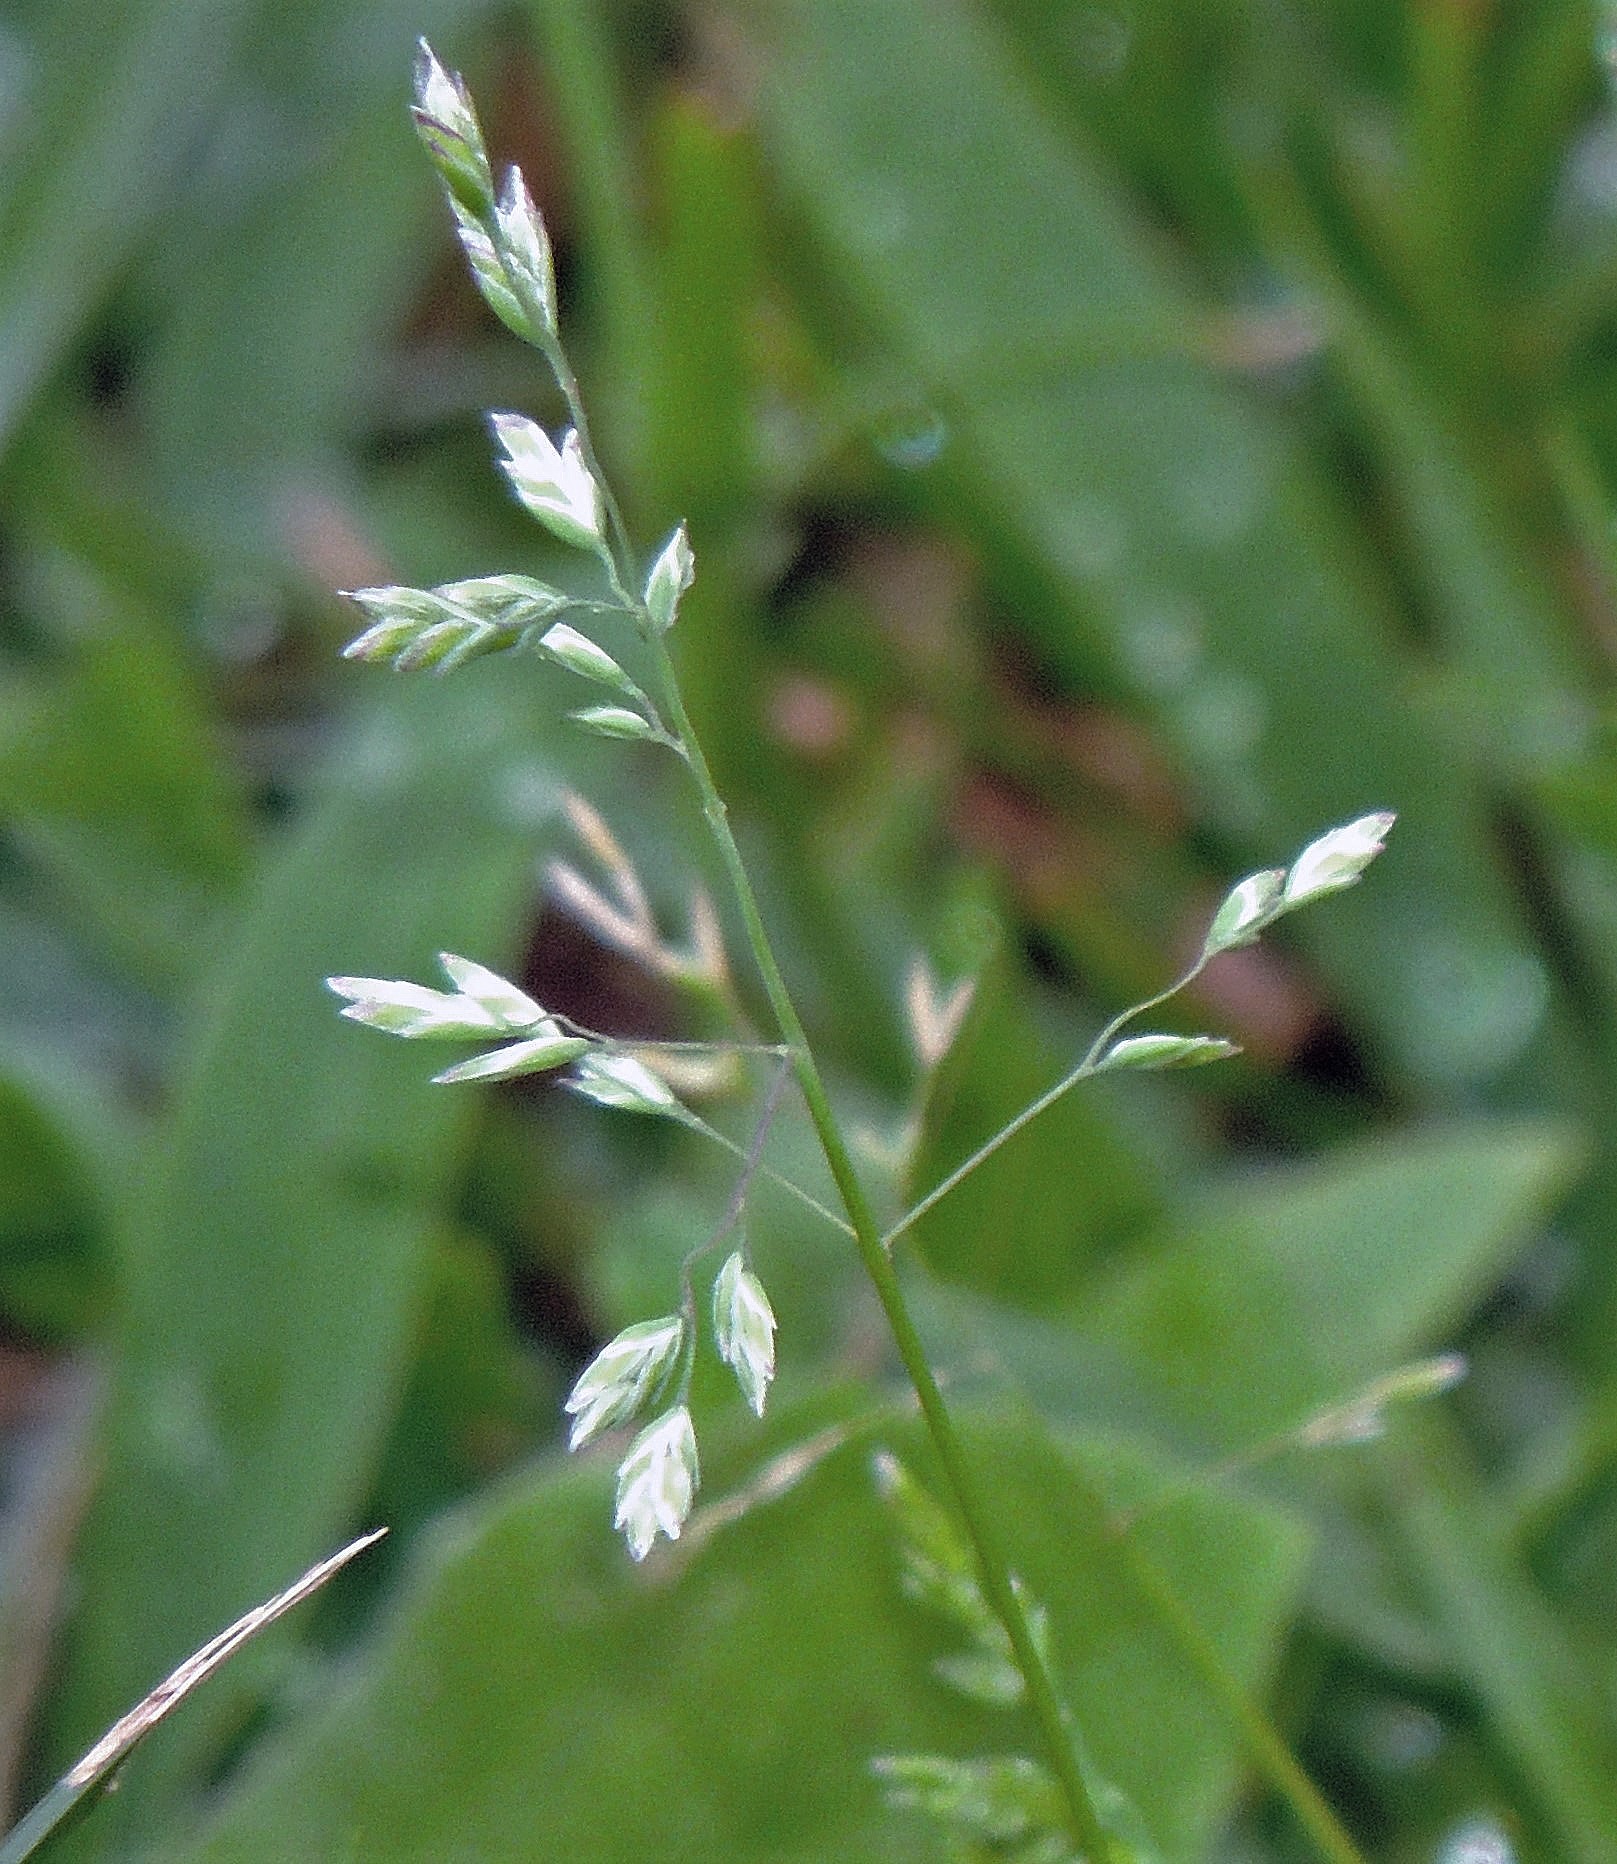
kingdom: Plantae
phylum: Tracheophyta
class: Liliopsida
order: Poales
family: Poaceae
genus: Poa
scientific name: Poa annua
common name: Annual bluegrass
